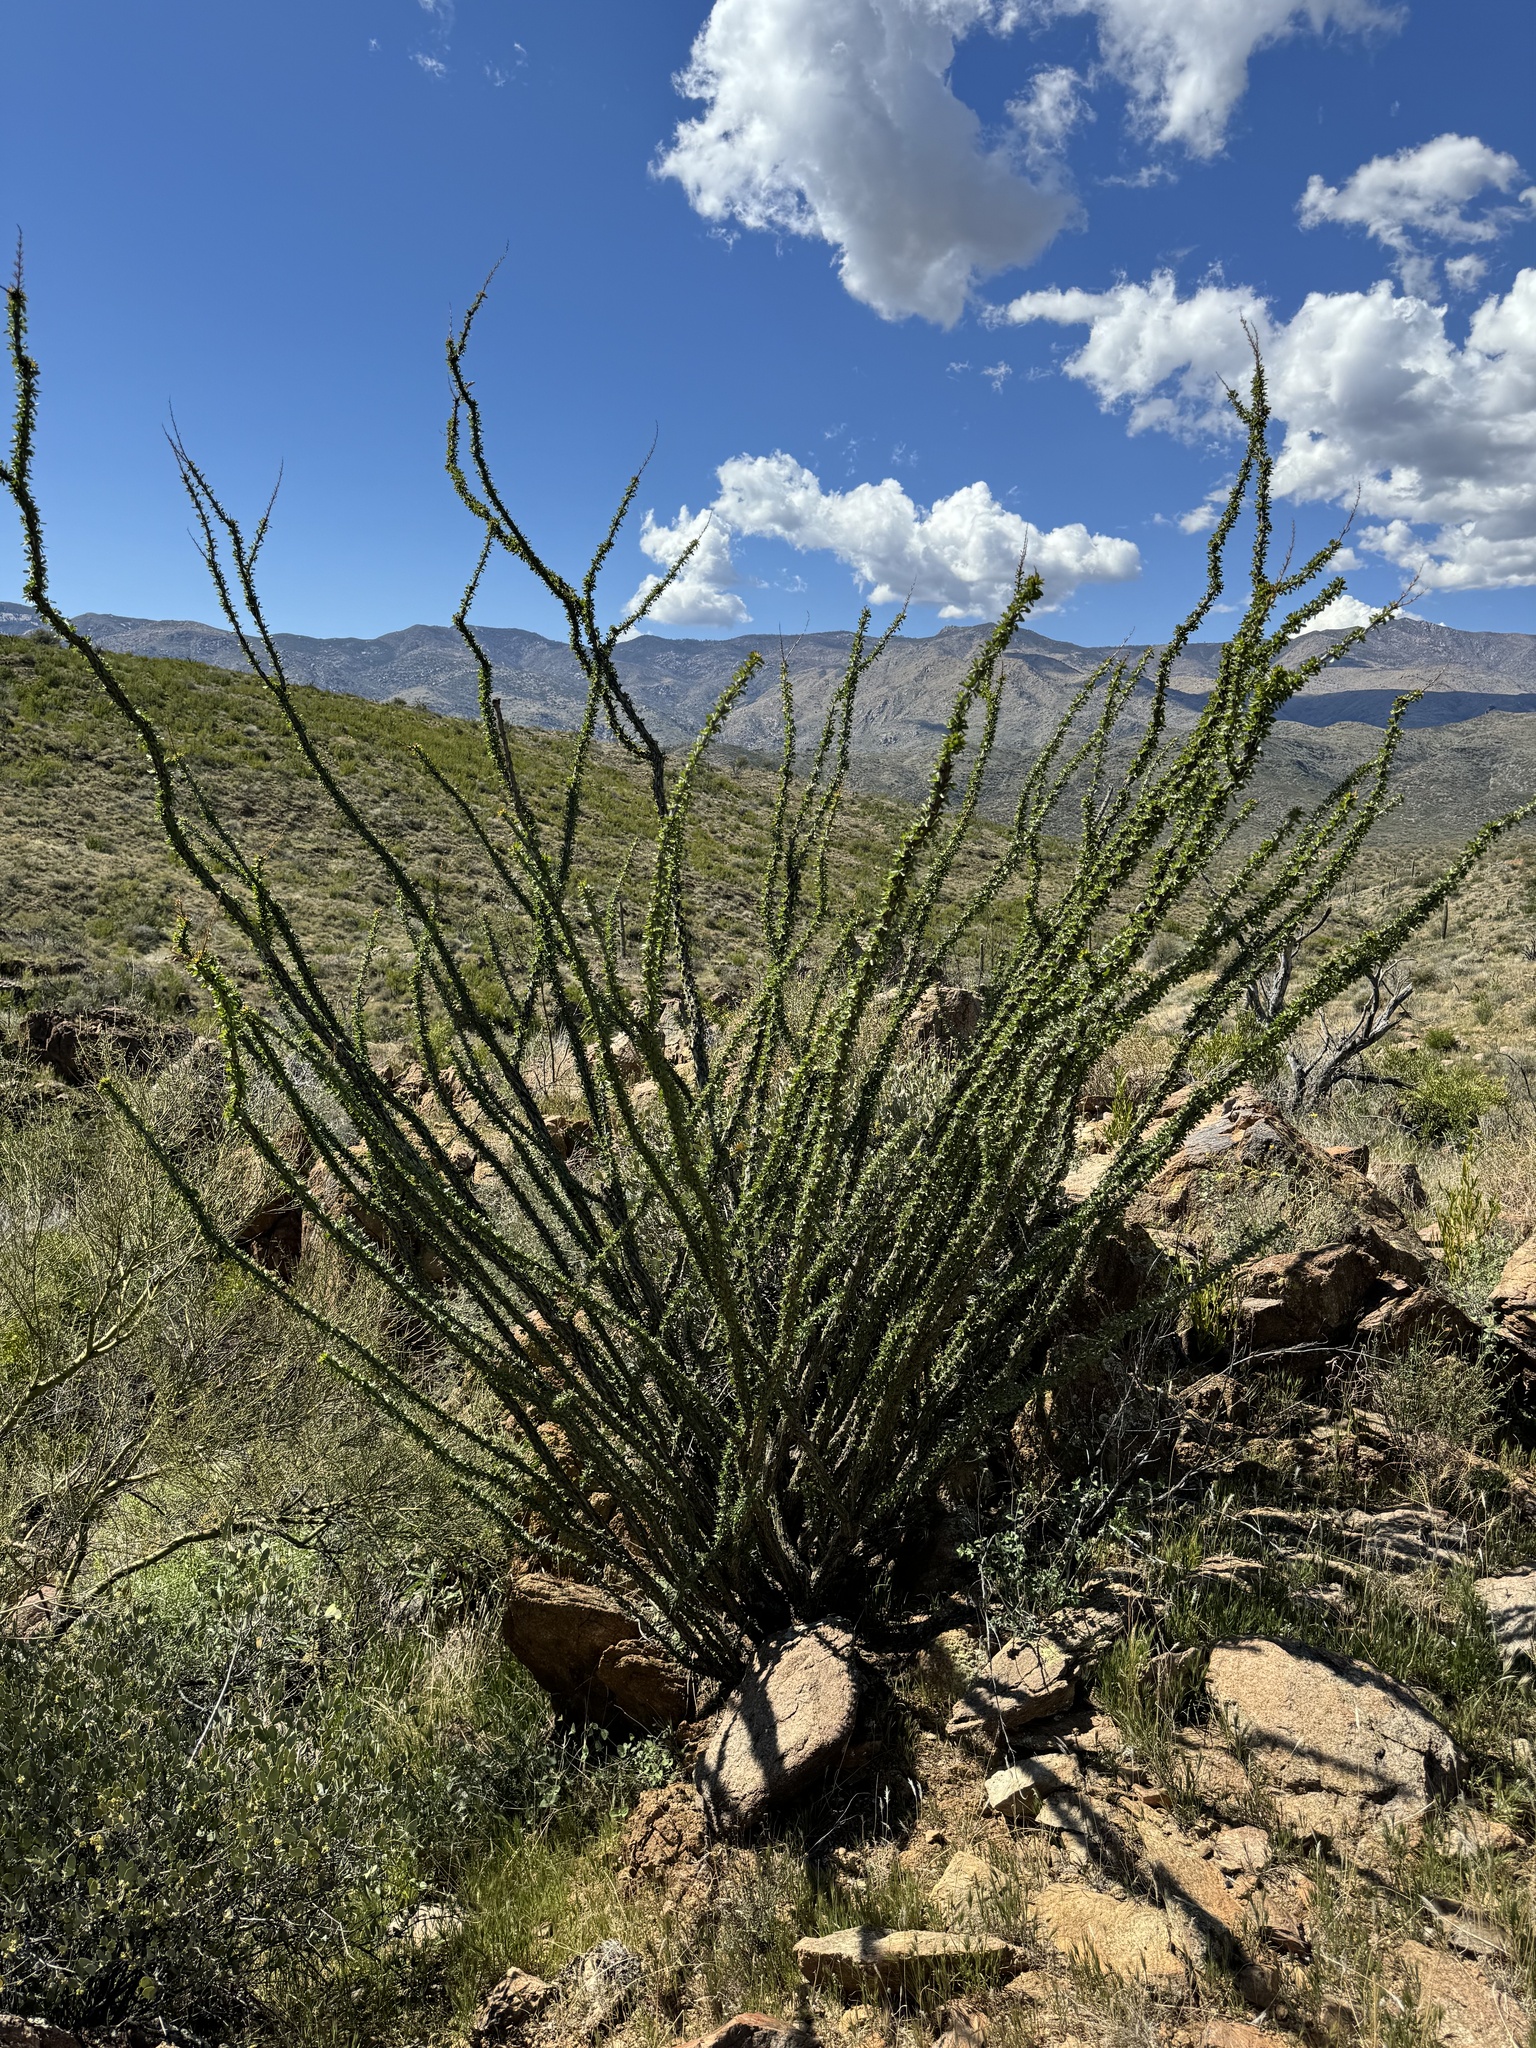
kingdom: Plantae
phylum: Tracheophyta
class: Magnoliopsida
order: Ericales
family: Fouquieriaceae
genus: Fouquieria
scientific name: Fouquieria splendens
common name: Vine-cactus
